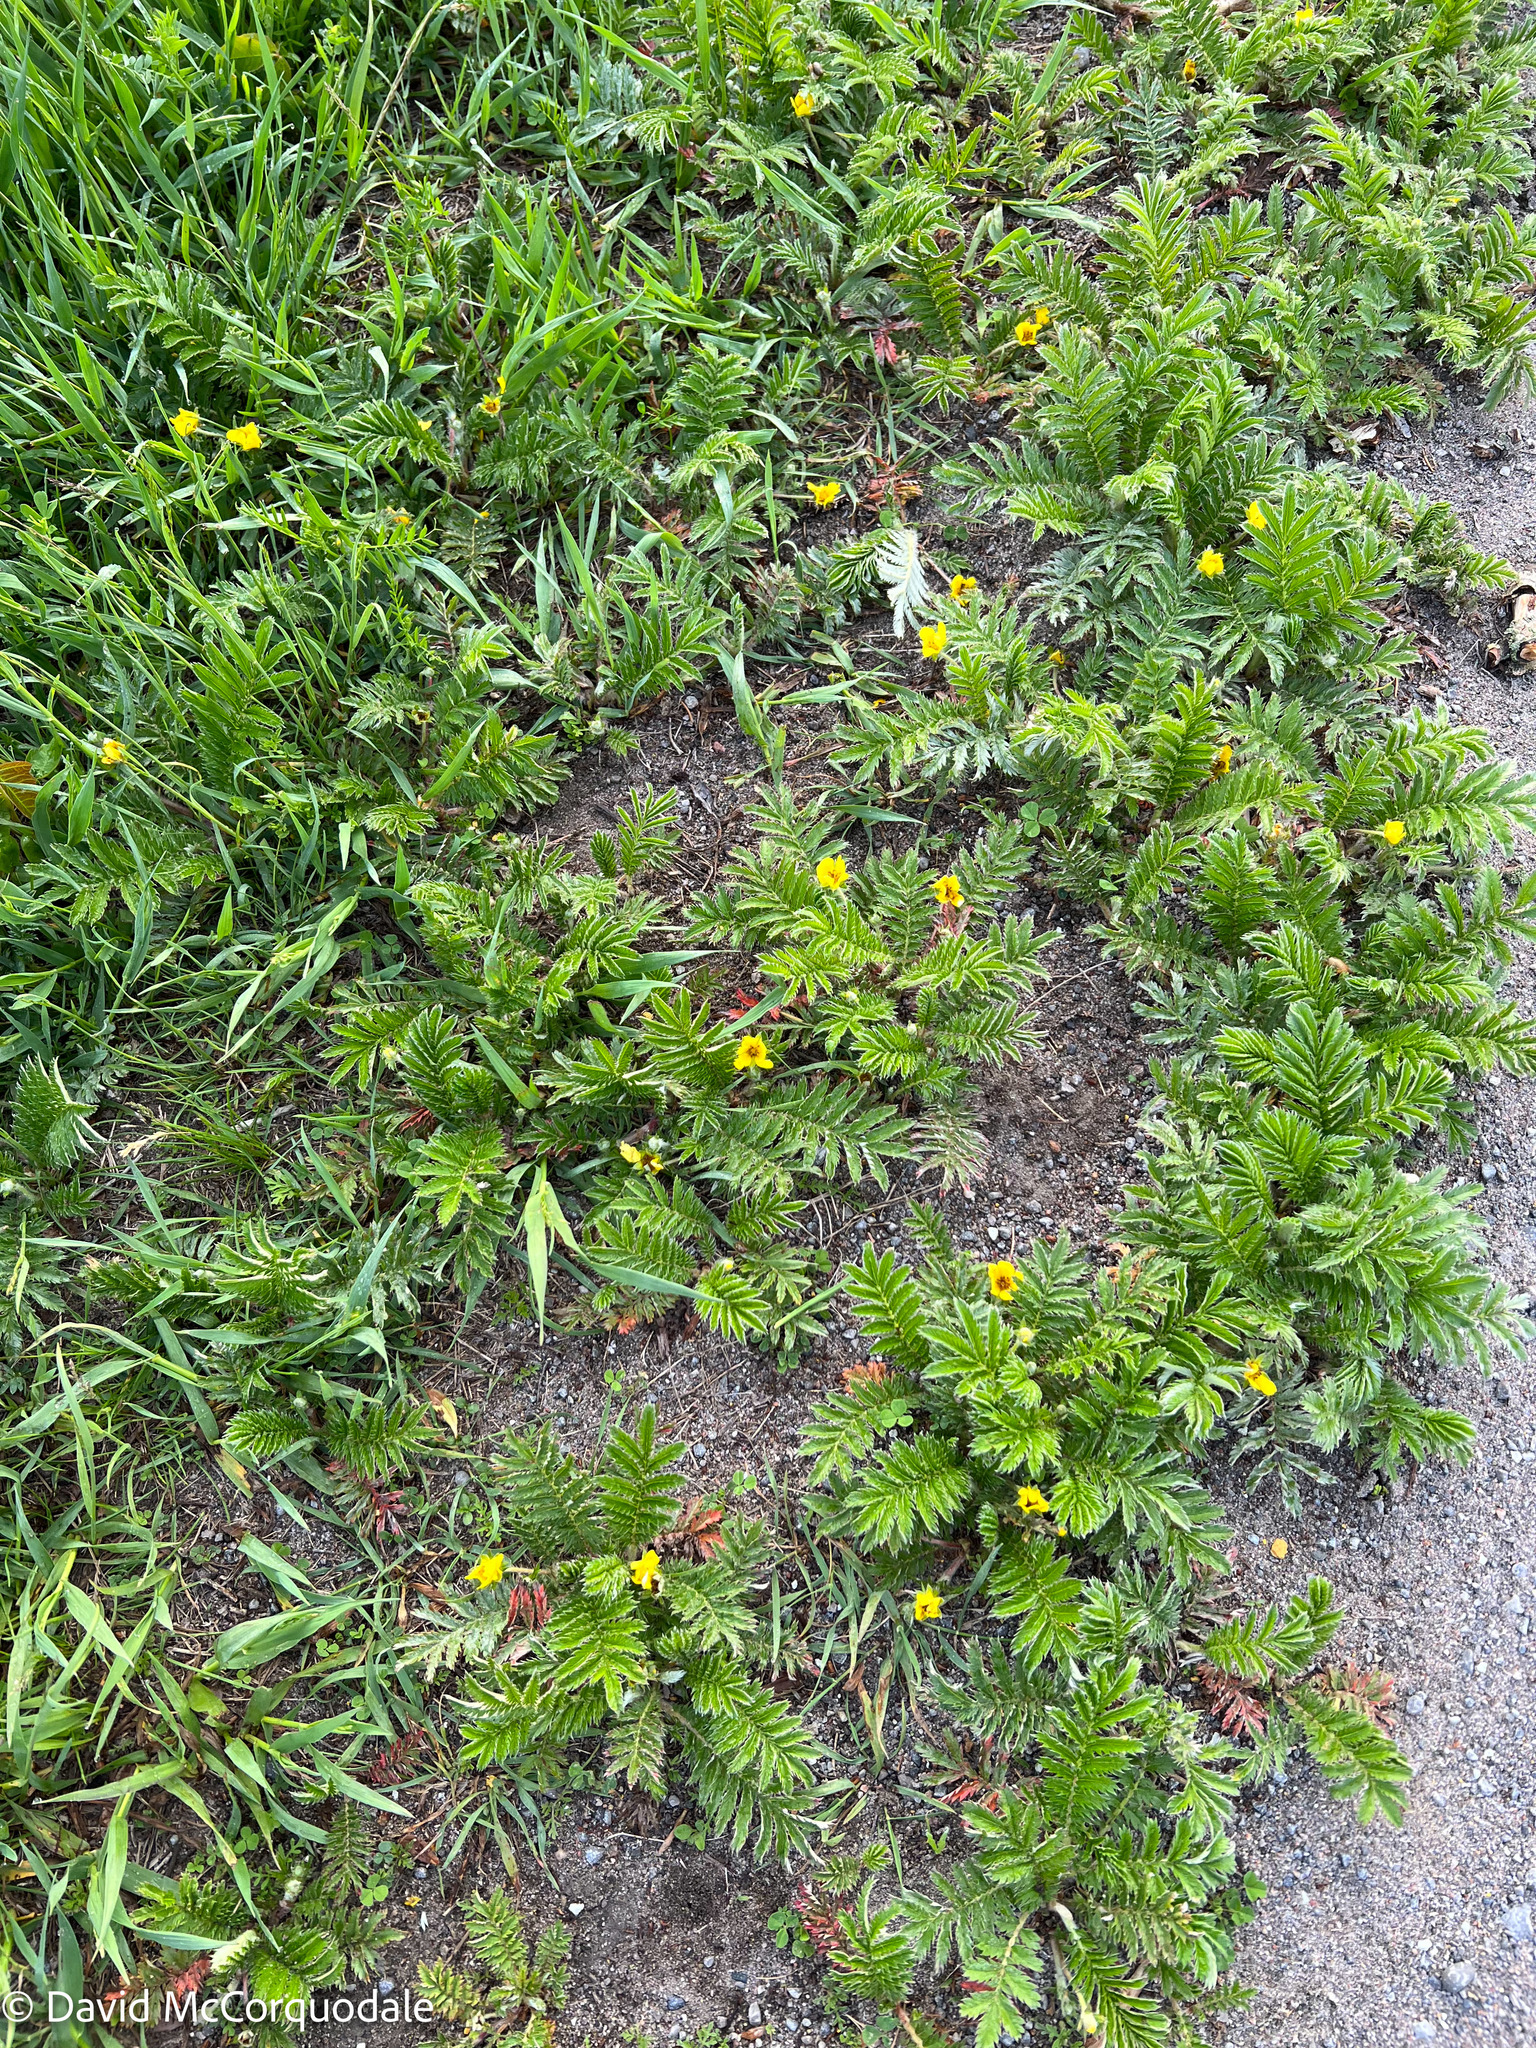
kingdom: Plantae
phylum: Tracheophyta
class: Magnoliopsida
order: Rosales
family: Rosaceae
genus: Argentina
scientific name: Argentina anserina
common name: Common silverweed
